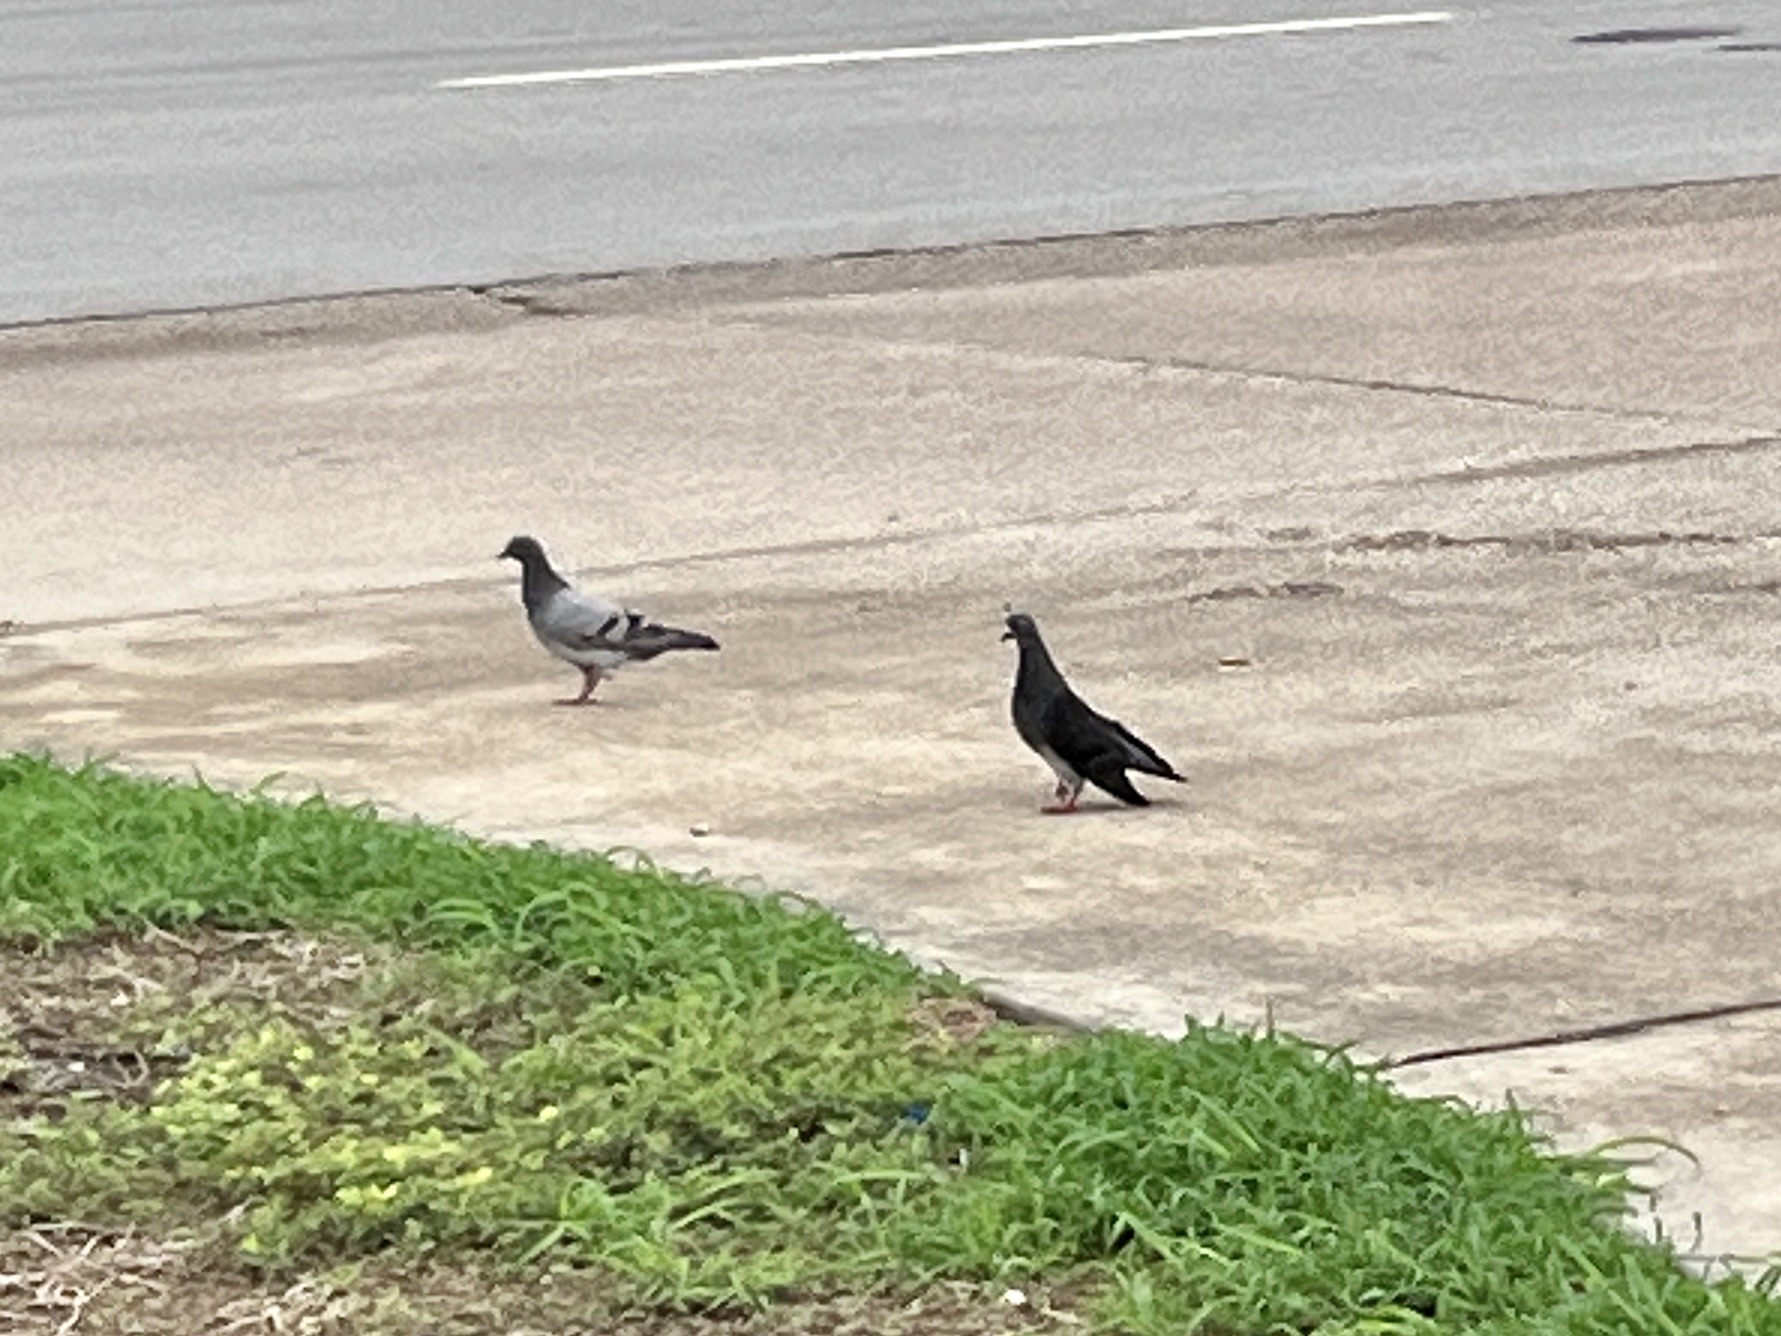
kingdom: Animalia
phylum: Chordata
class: Aves
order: Columbiformes
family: Columbidae
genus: Columba
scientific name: Columba livia
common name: Rock pigeon
